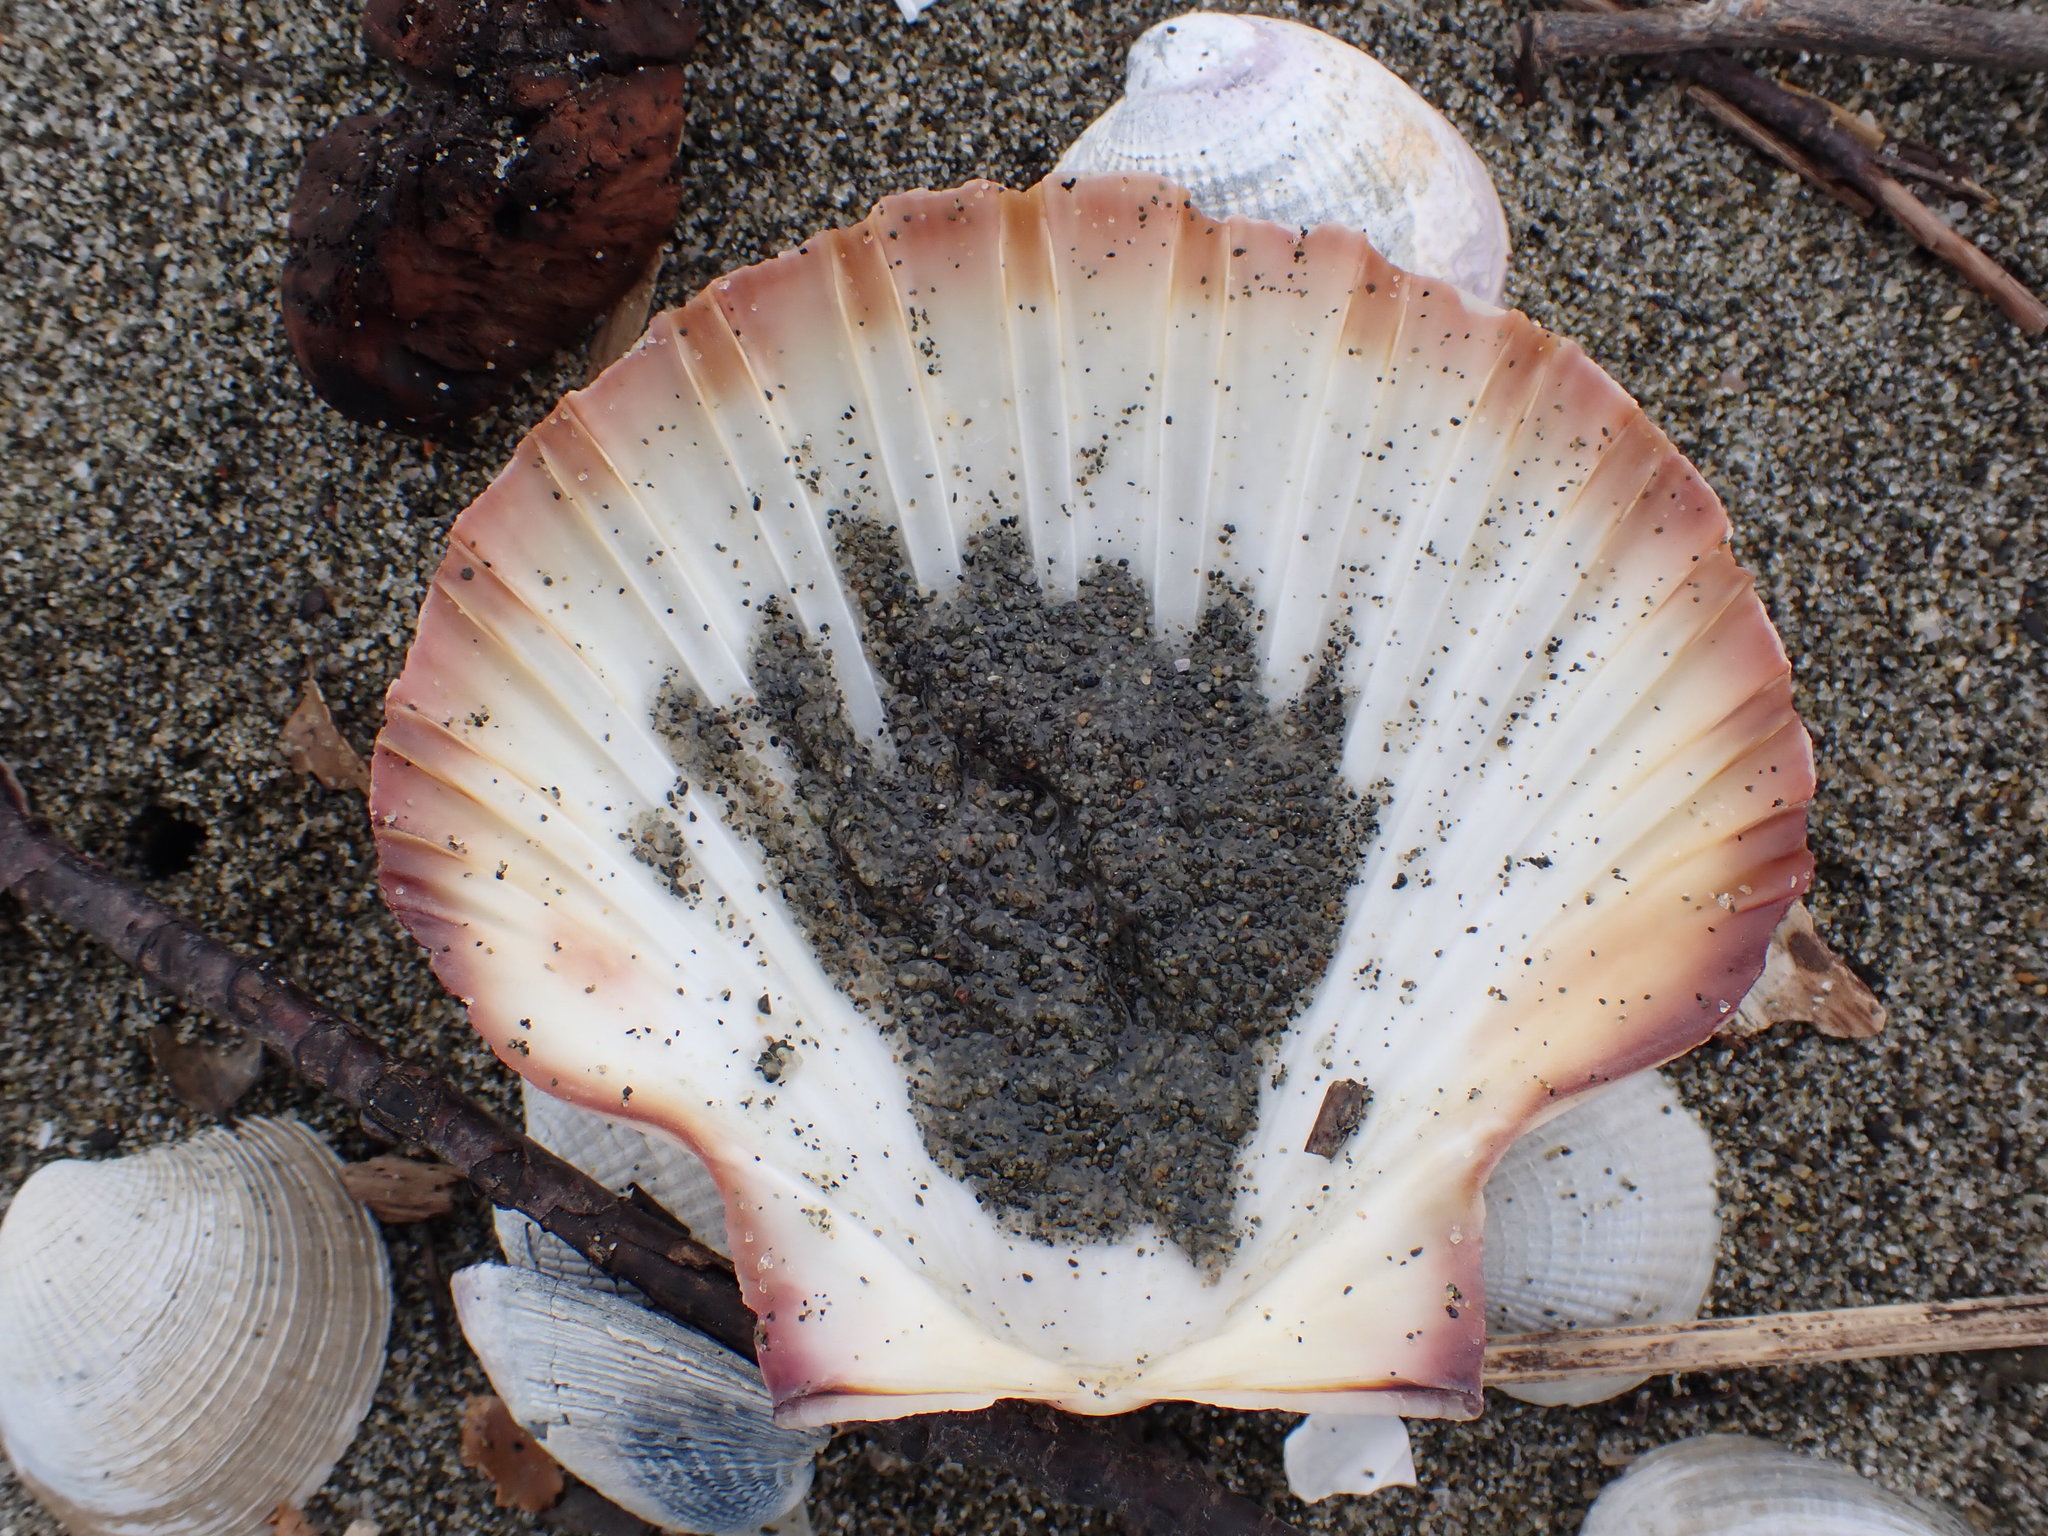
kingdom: Animalia
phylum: Mollusca
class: Bivalvia
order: Pectinida
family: Pectinidae
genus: Pecten
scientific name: Pecten novaezelandiae
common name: New zealand scallop
